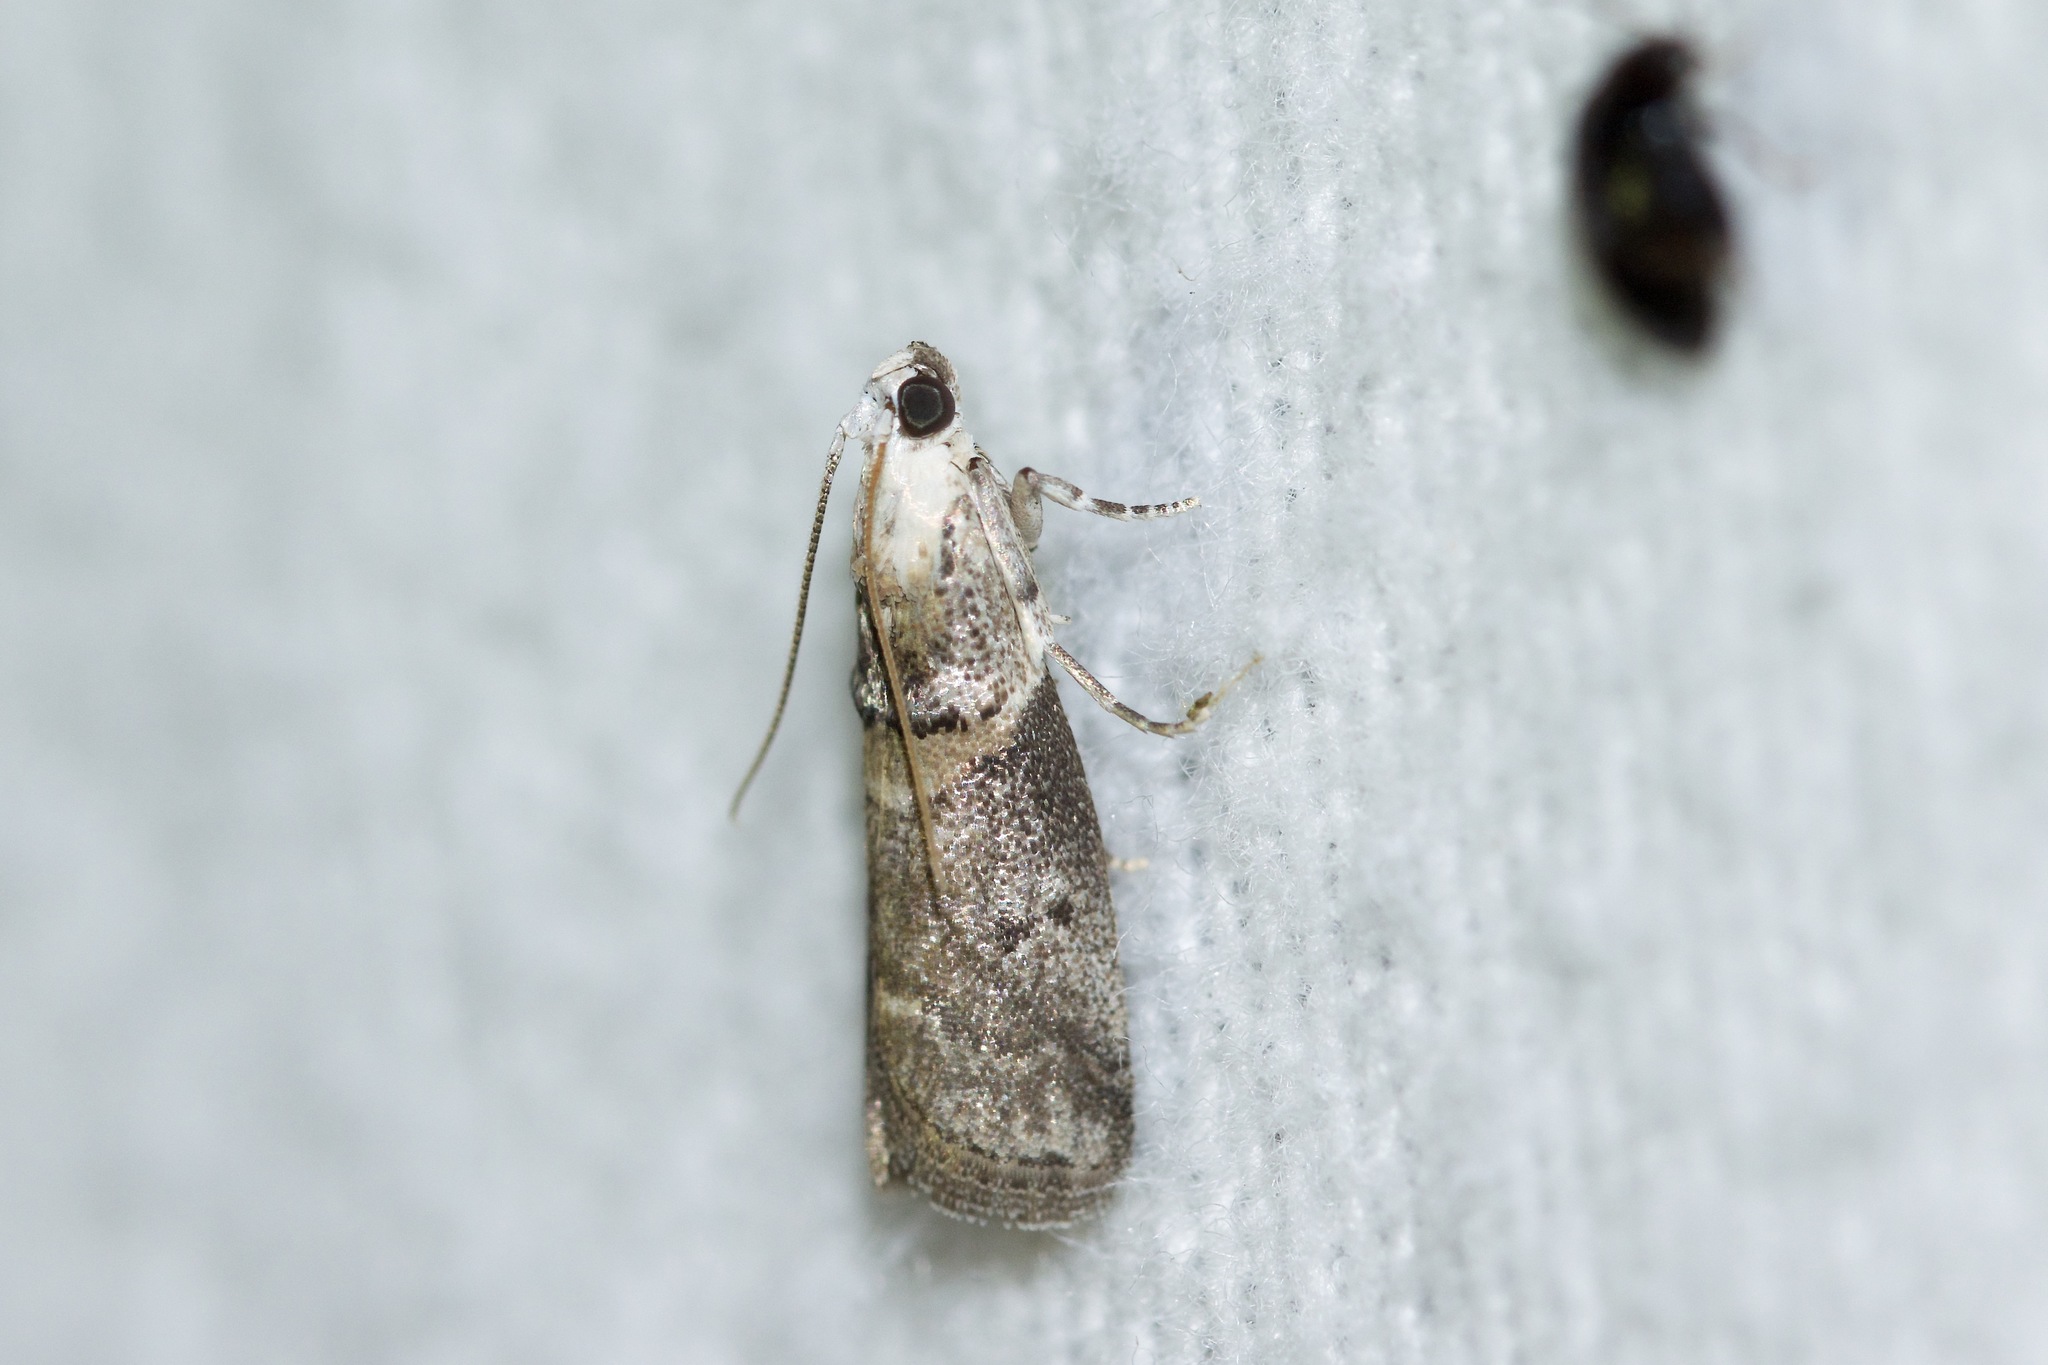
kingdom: Animalia
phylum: Arthropoda
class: Insecta
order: Lepidoptera
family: Pyralidae
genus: Acrobasis
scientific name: Acrobasis juglandis
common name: Pecan leaf casebearer moth
